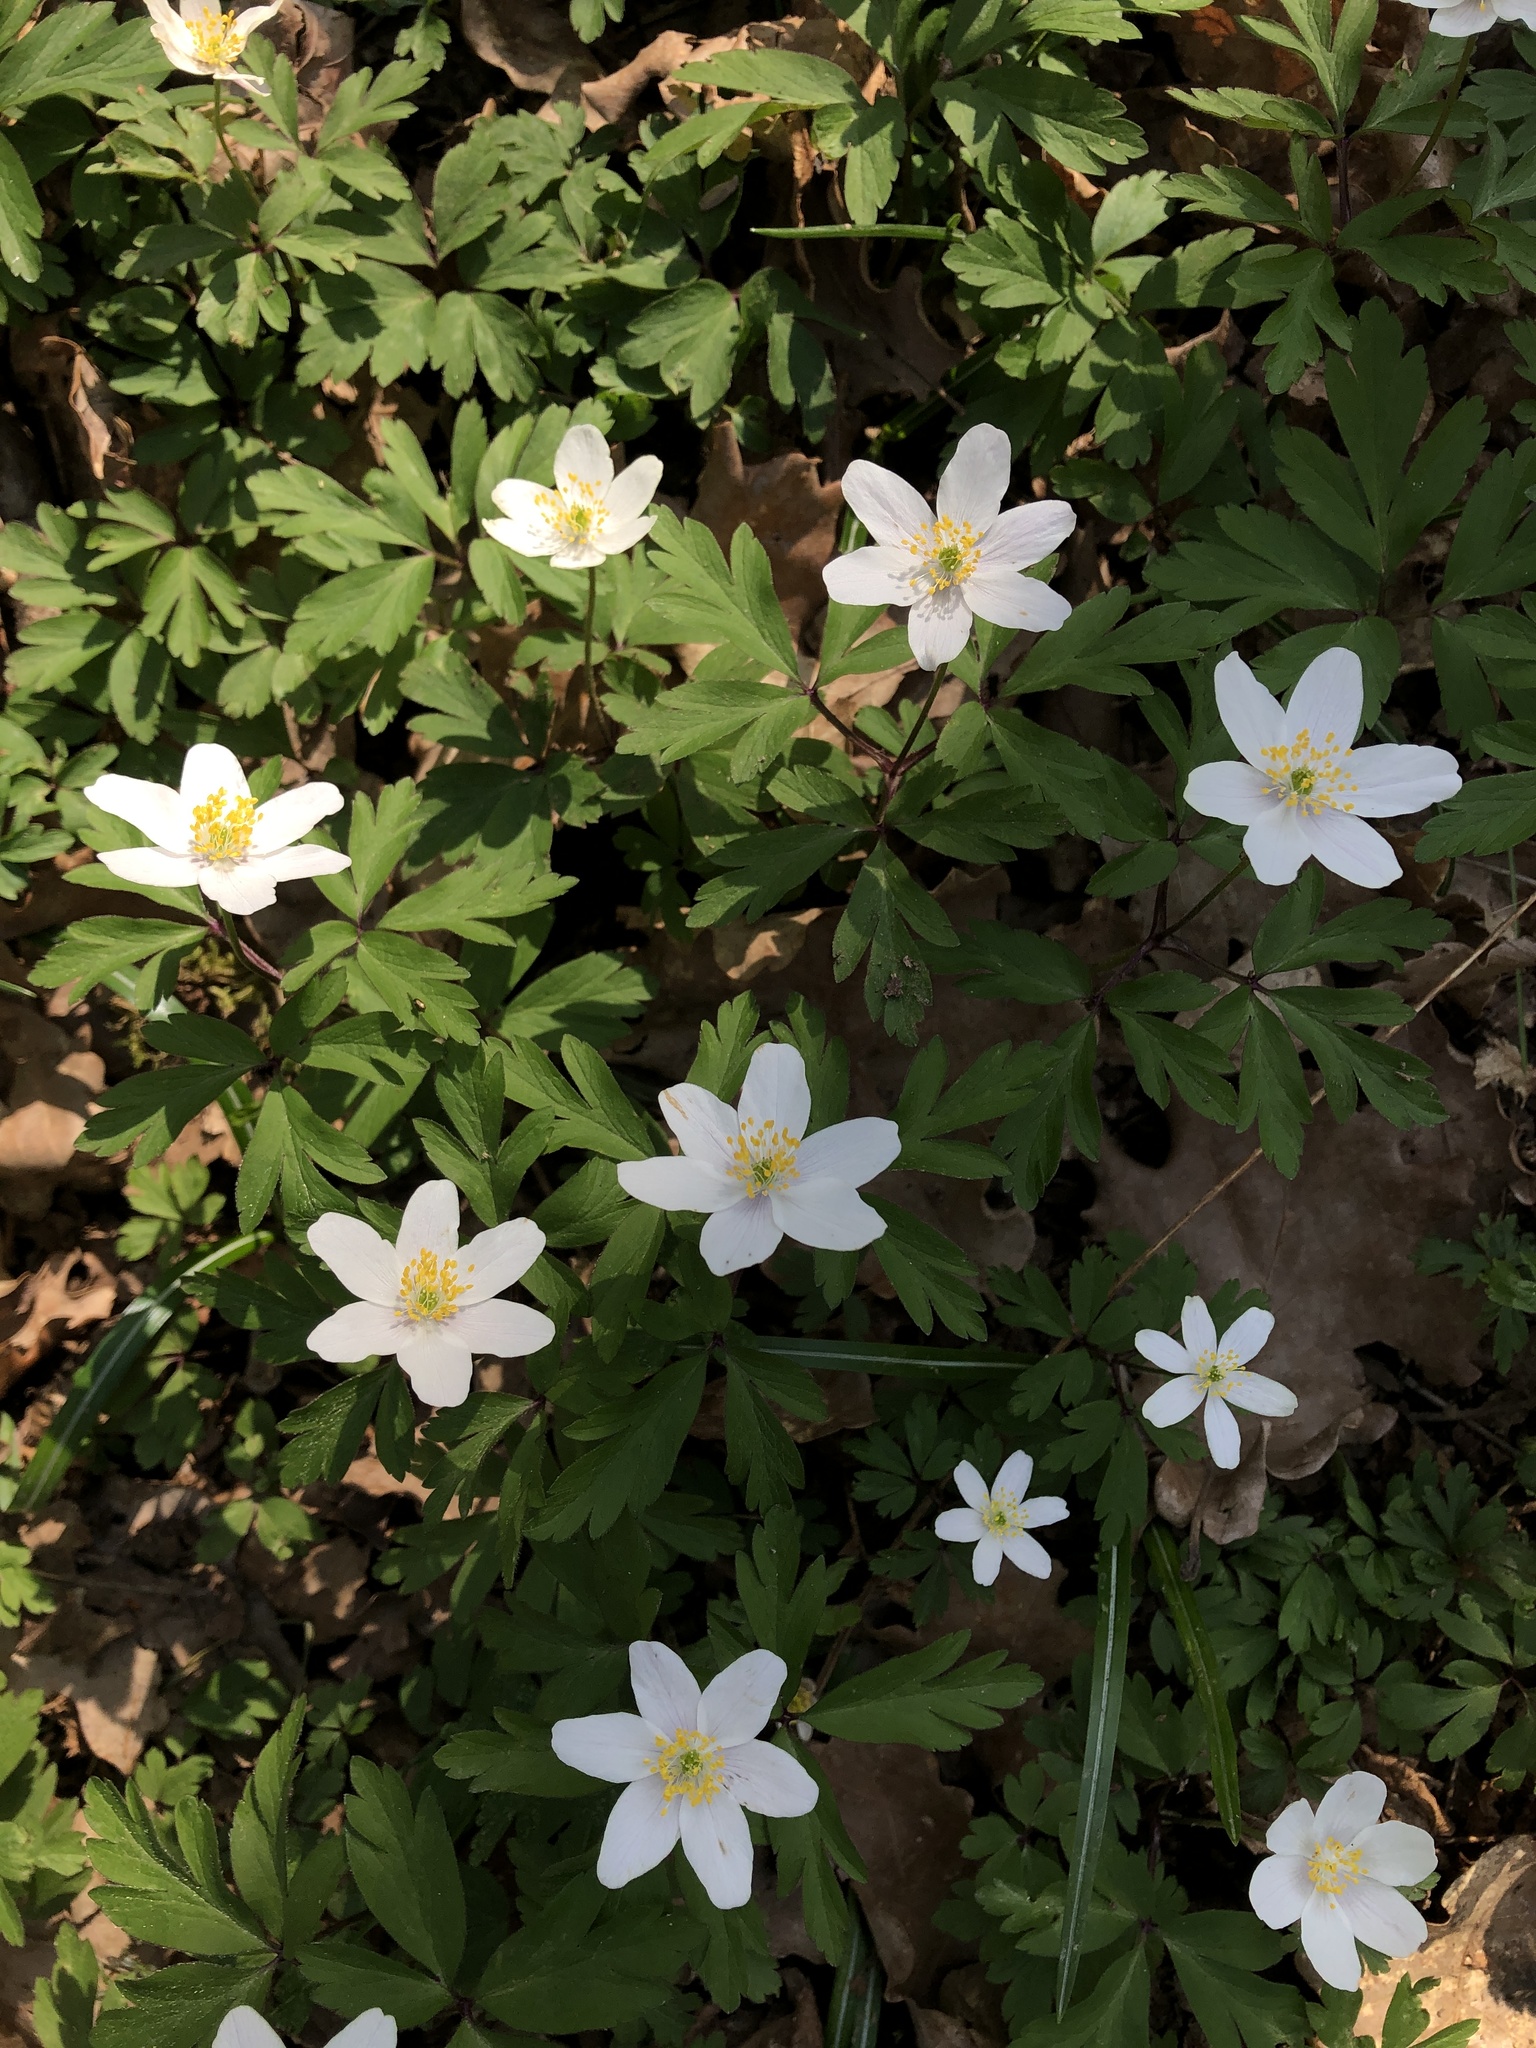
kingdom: Plantae
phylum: Tracheophyta
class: Magnoliopsida
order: Ranunculales
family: Ranunculaceae
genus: Anemone
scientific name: Anemone nemorosa
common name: Wood anemone
